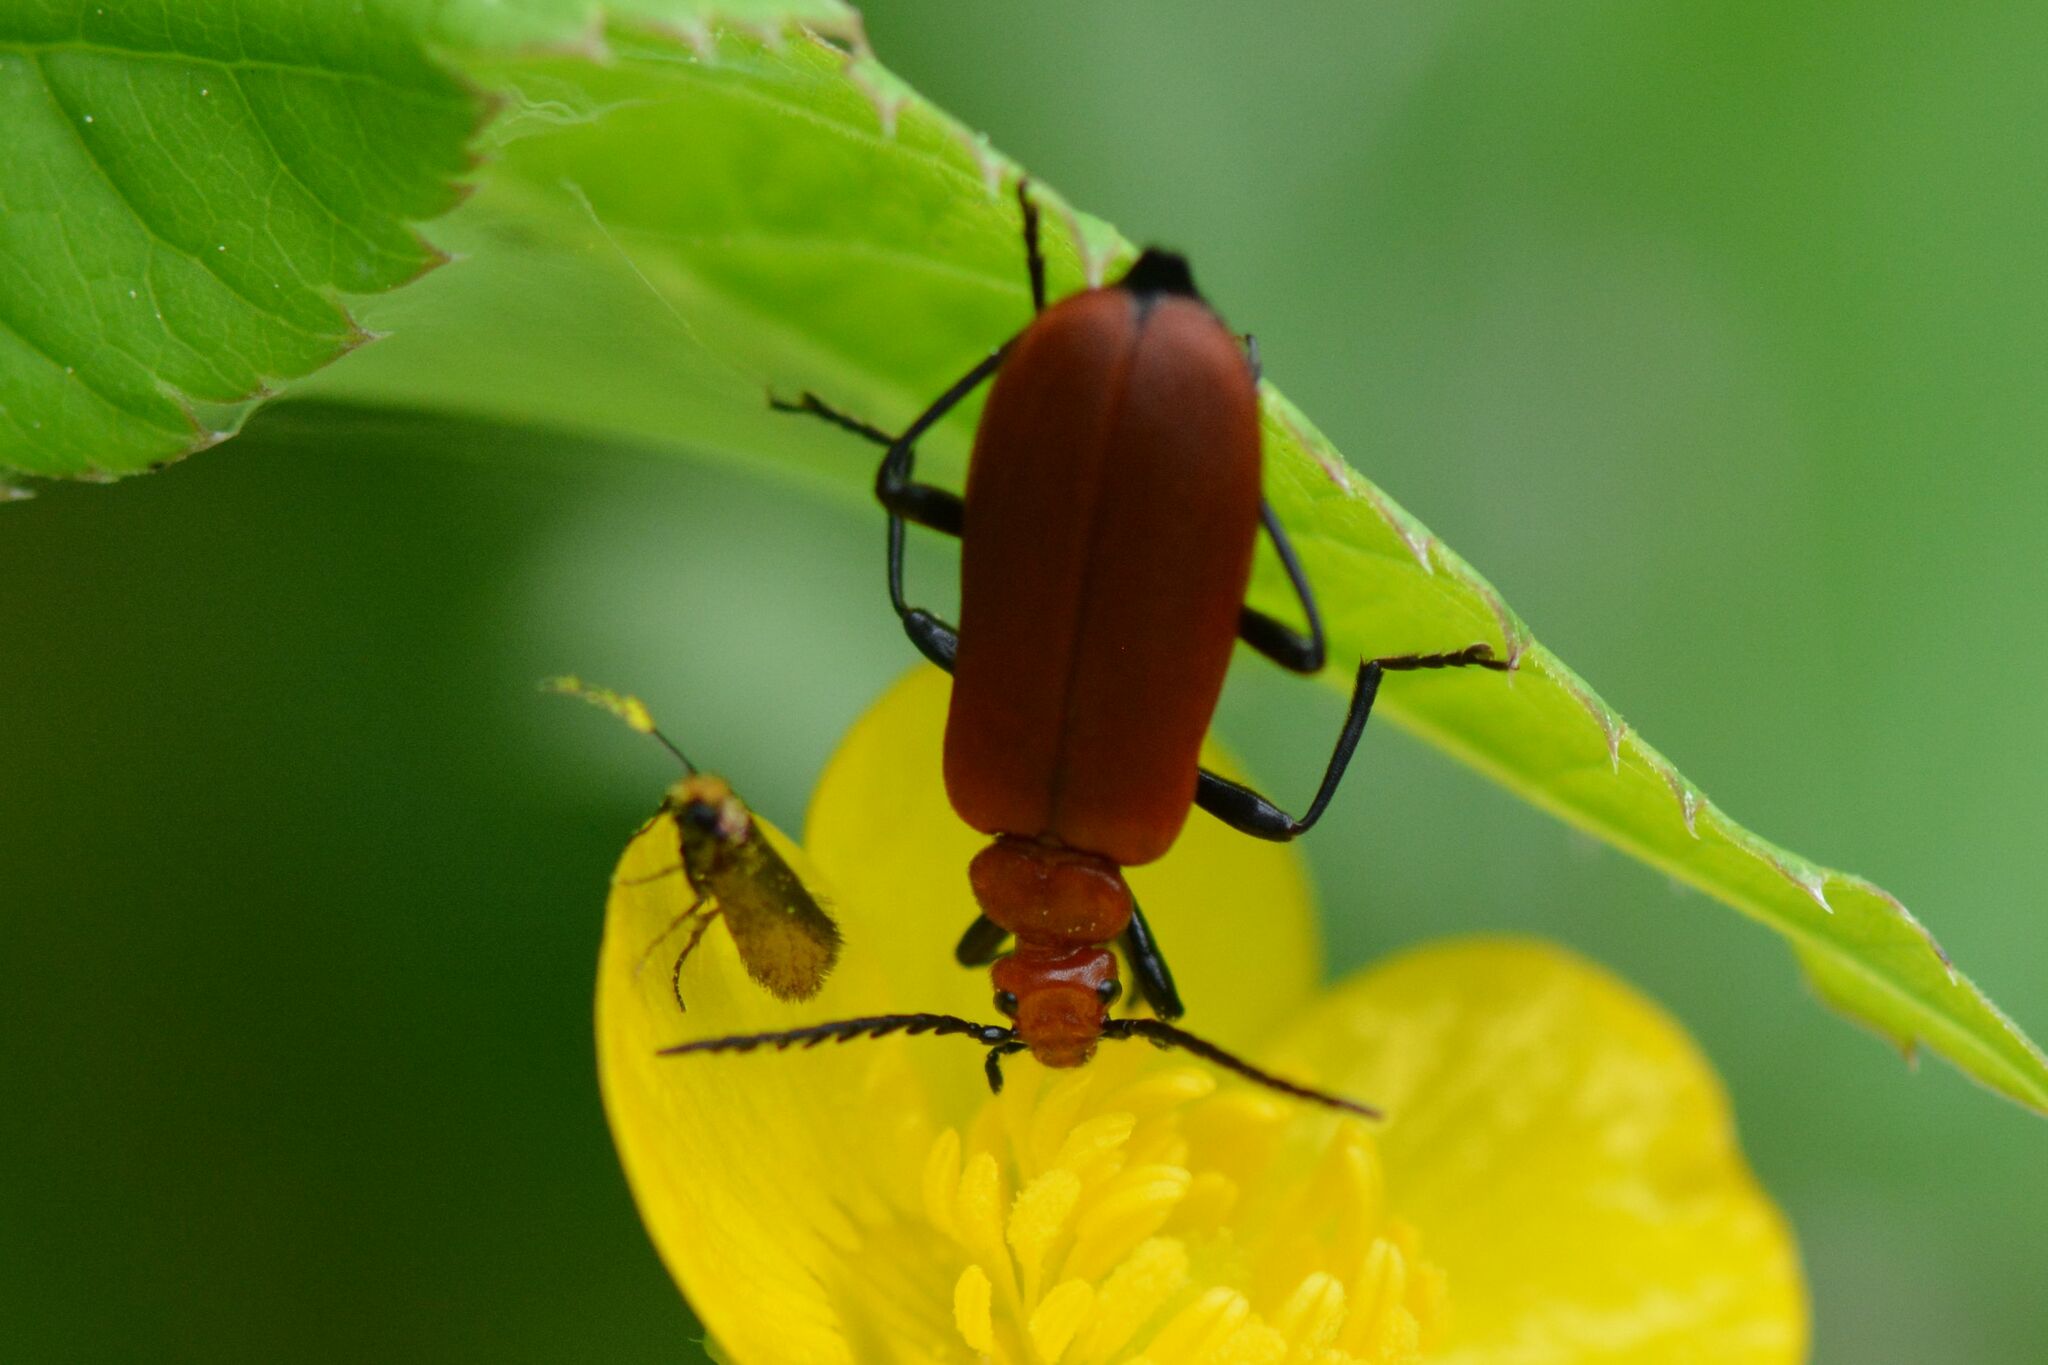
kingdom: Animalia
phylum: Arthropoda
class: Insecta
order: Coleoptera
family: Pyrochroidae
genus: Pyrochroa
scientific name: Pyrochroa serraticornis
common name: Red-headed cardinal beetle
